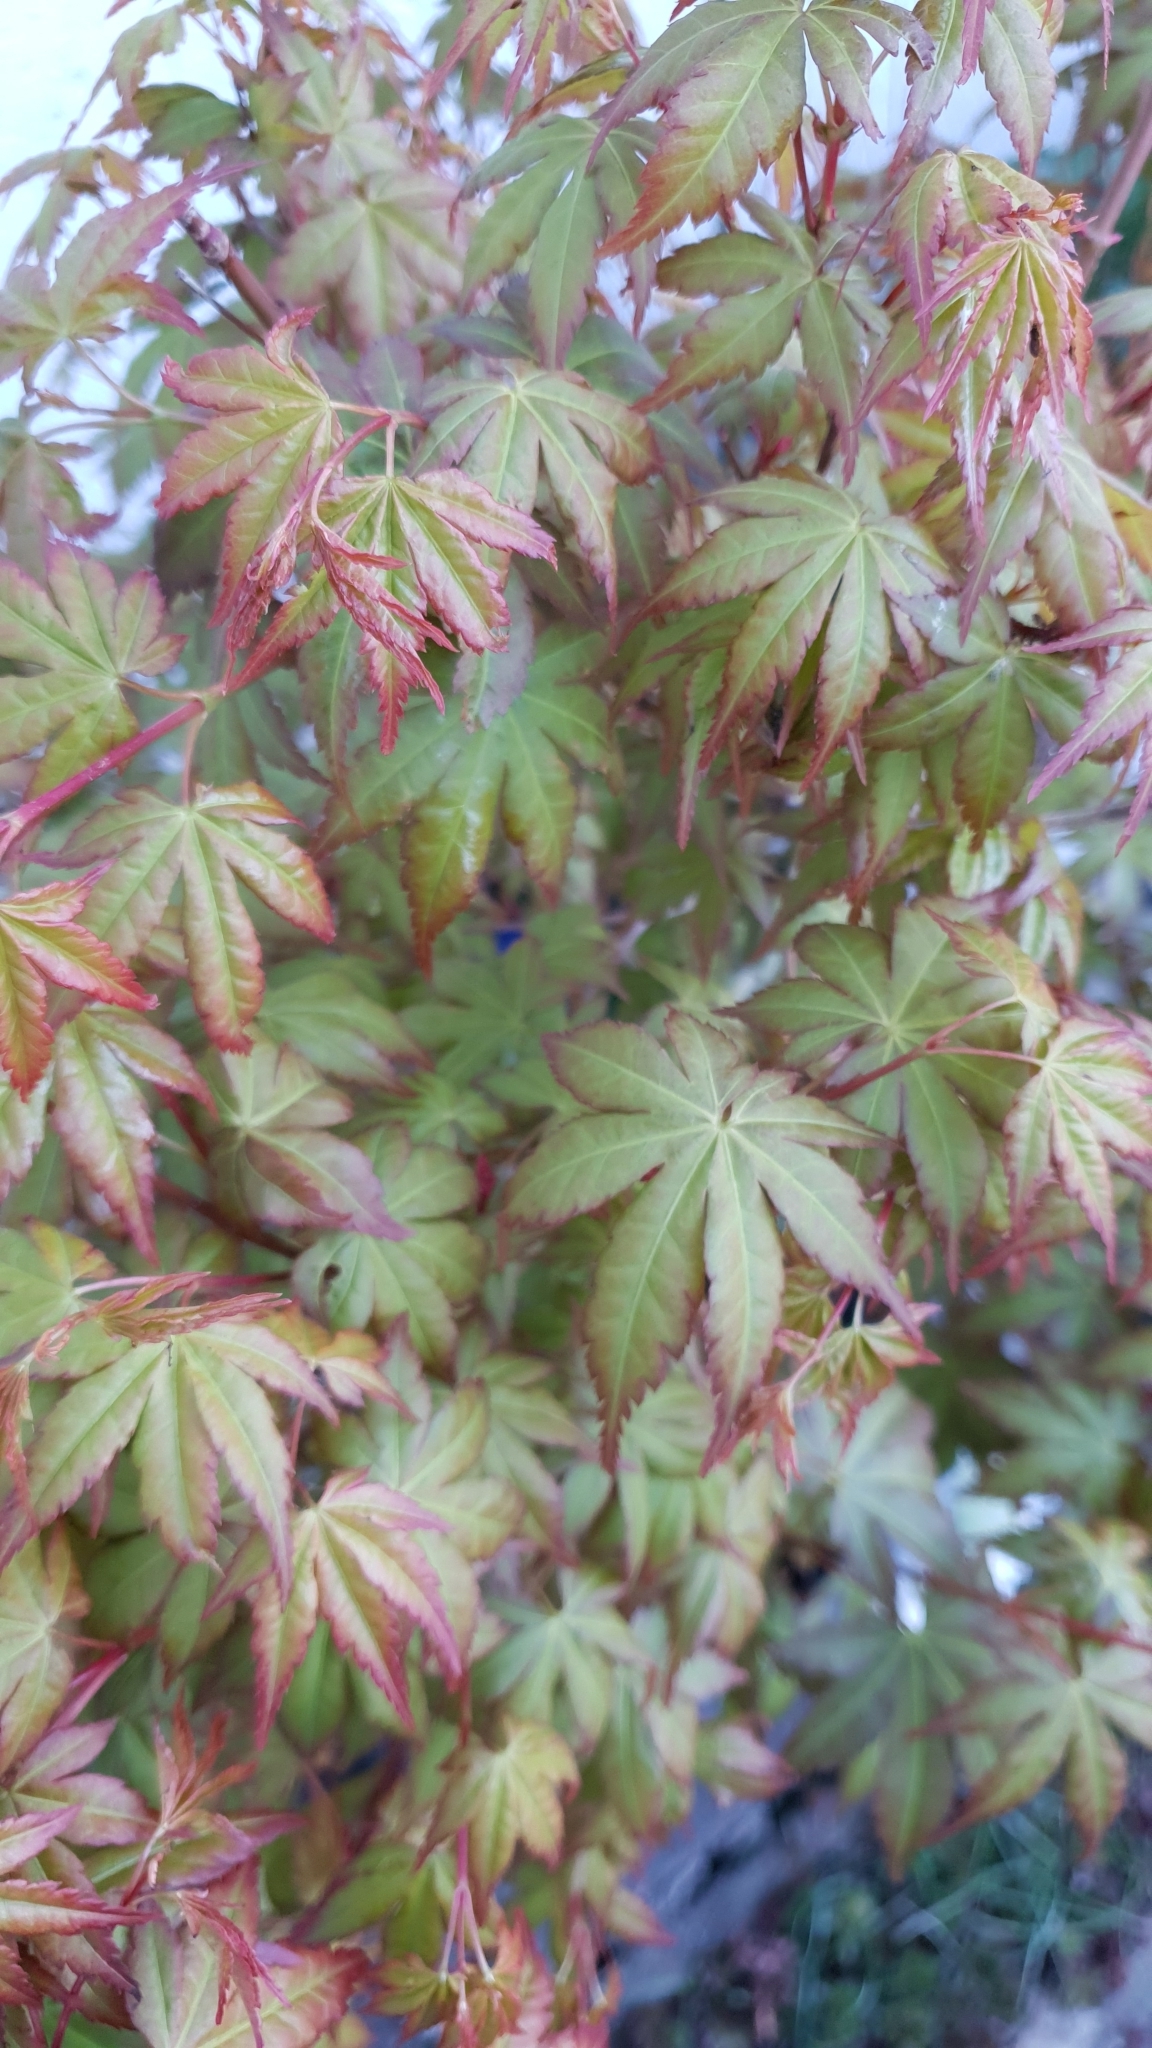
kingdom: Animalia
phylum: Arthropoda
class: Insecta
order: Hemiptera
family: Aphididae
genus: Periphyllus
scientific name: Periphyllus californiensis
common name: California maple aphid
